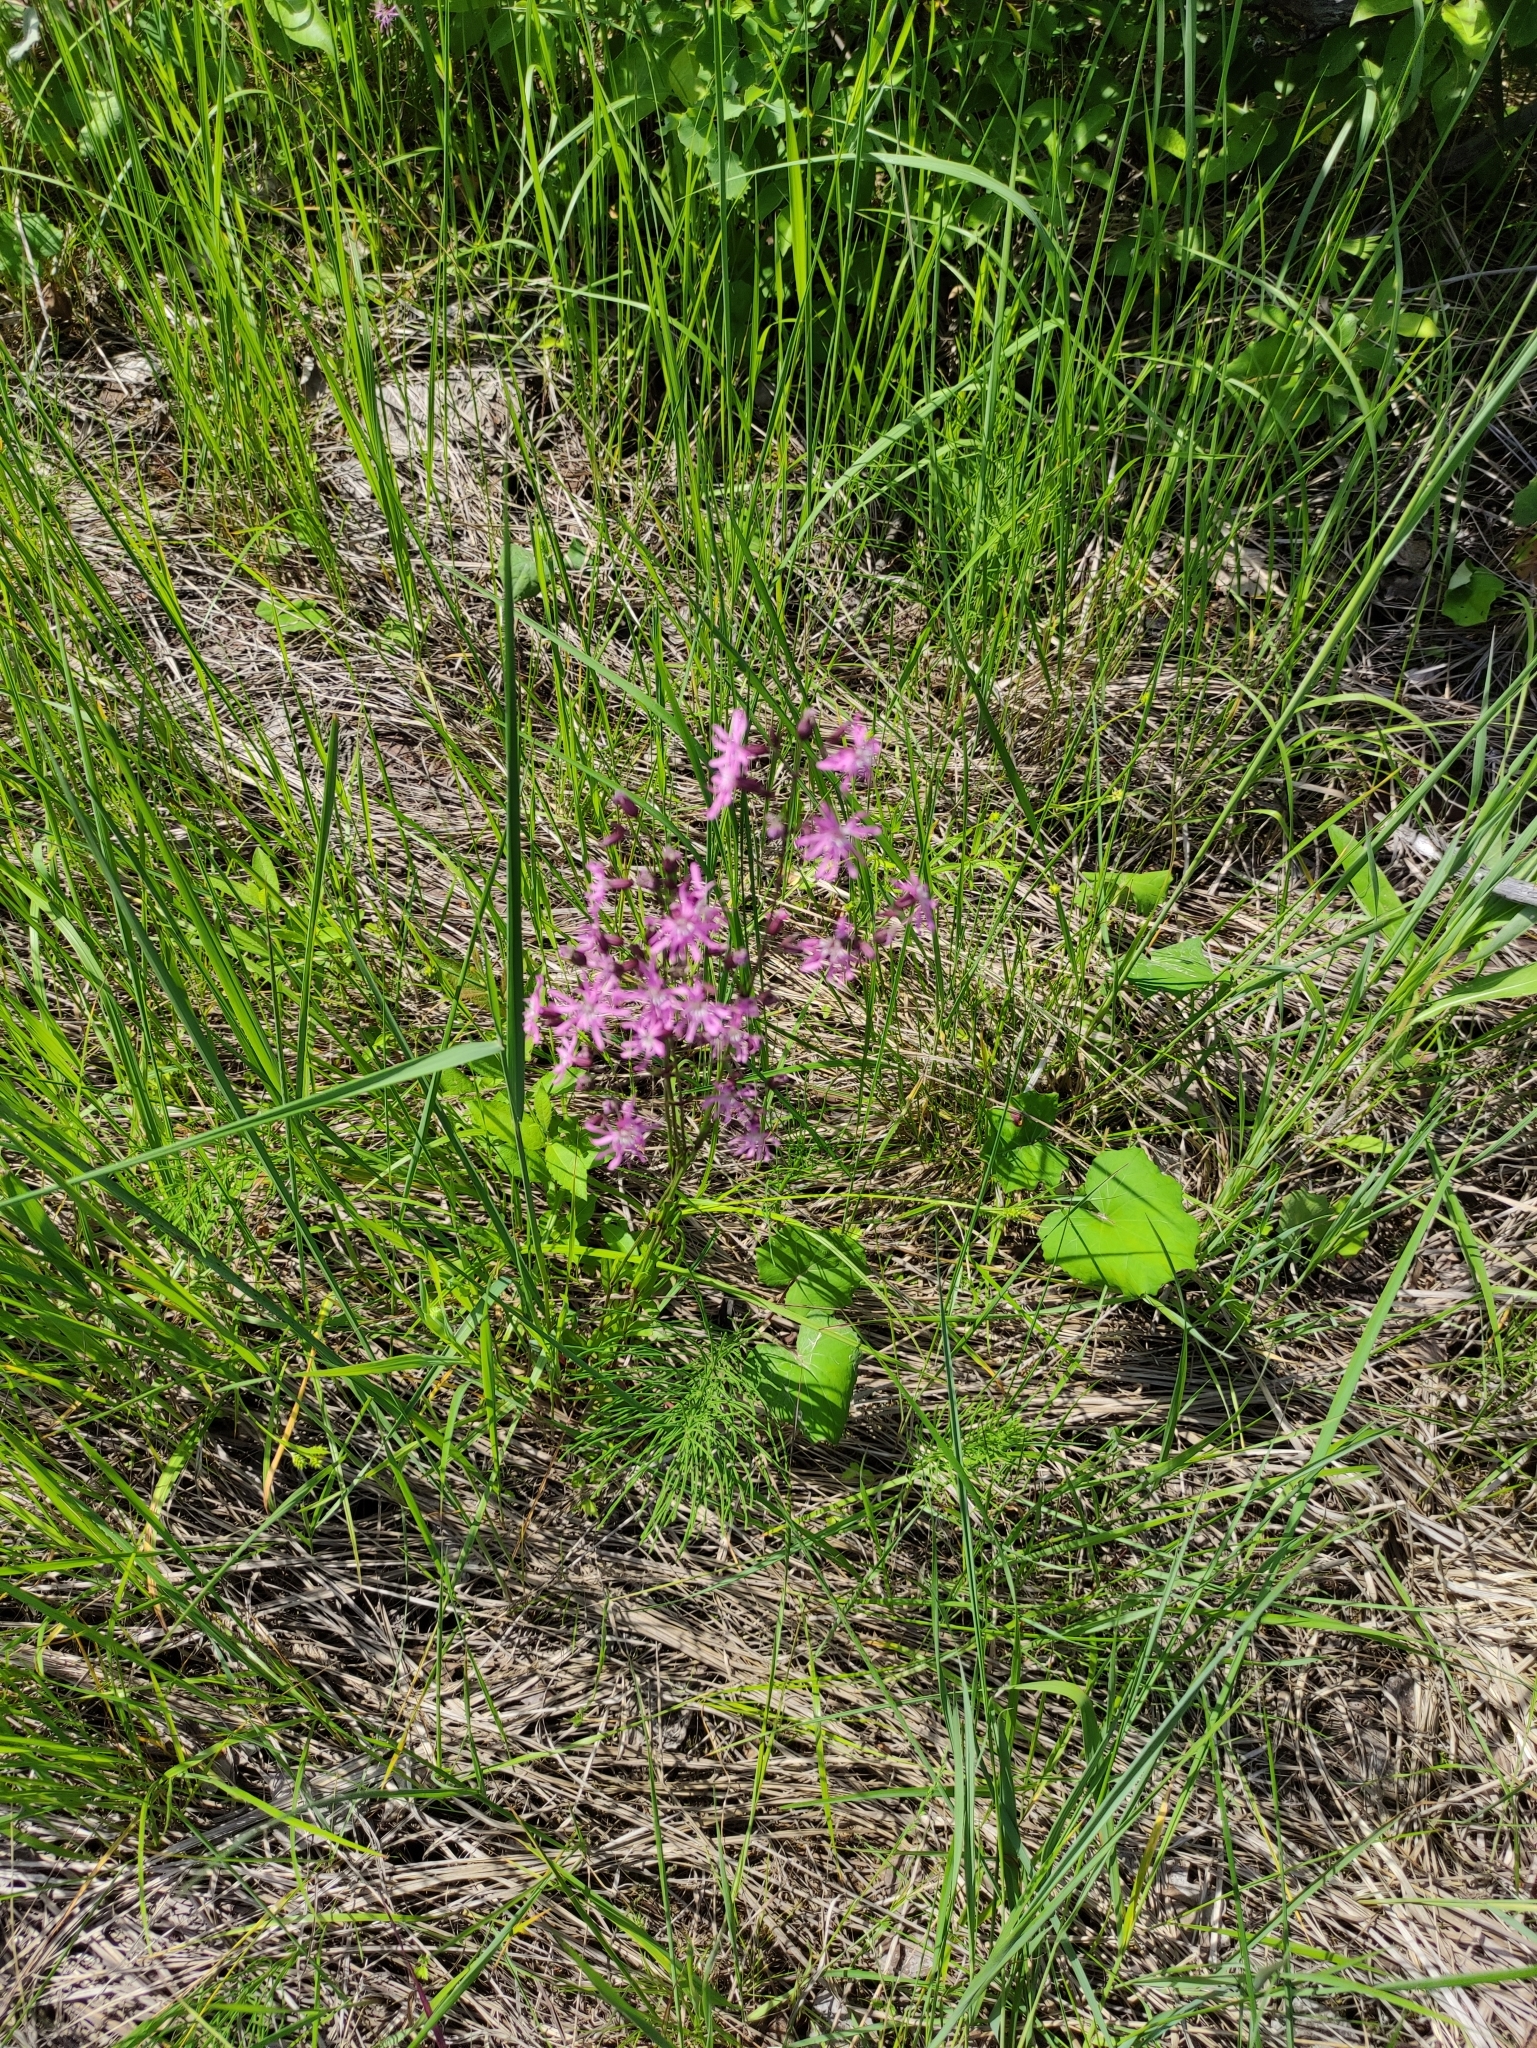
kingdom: Plantae
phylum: Tracheophyta
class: Magnoliopsida
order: Caryophyllales
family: Caryophyllaceae
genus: Silene
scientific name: Silene flos-cuculi
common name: Ragged-robin
